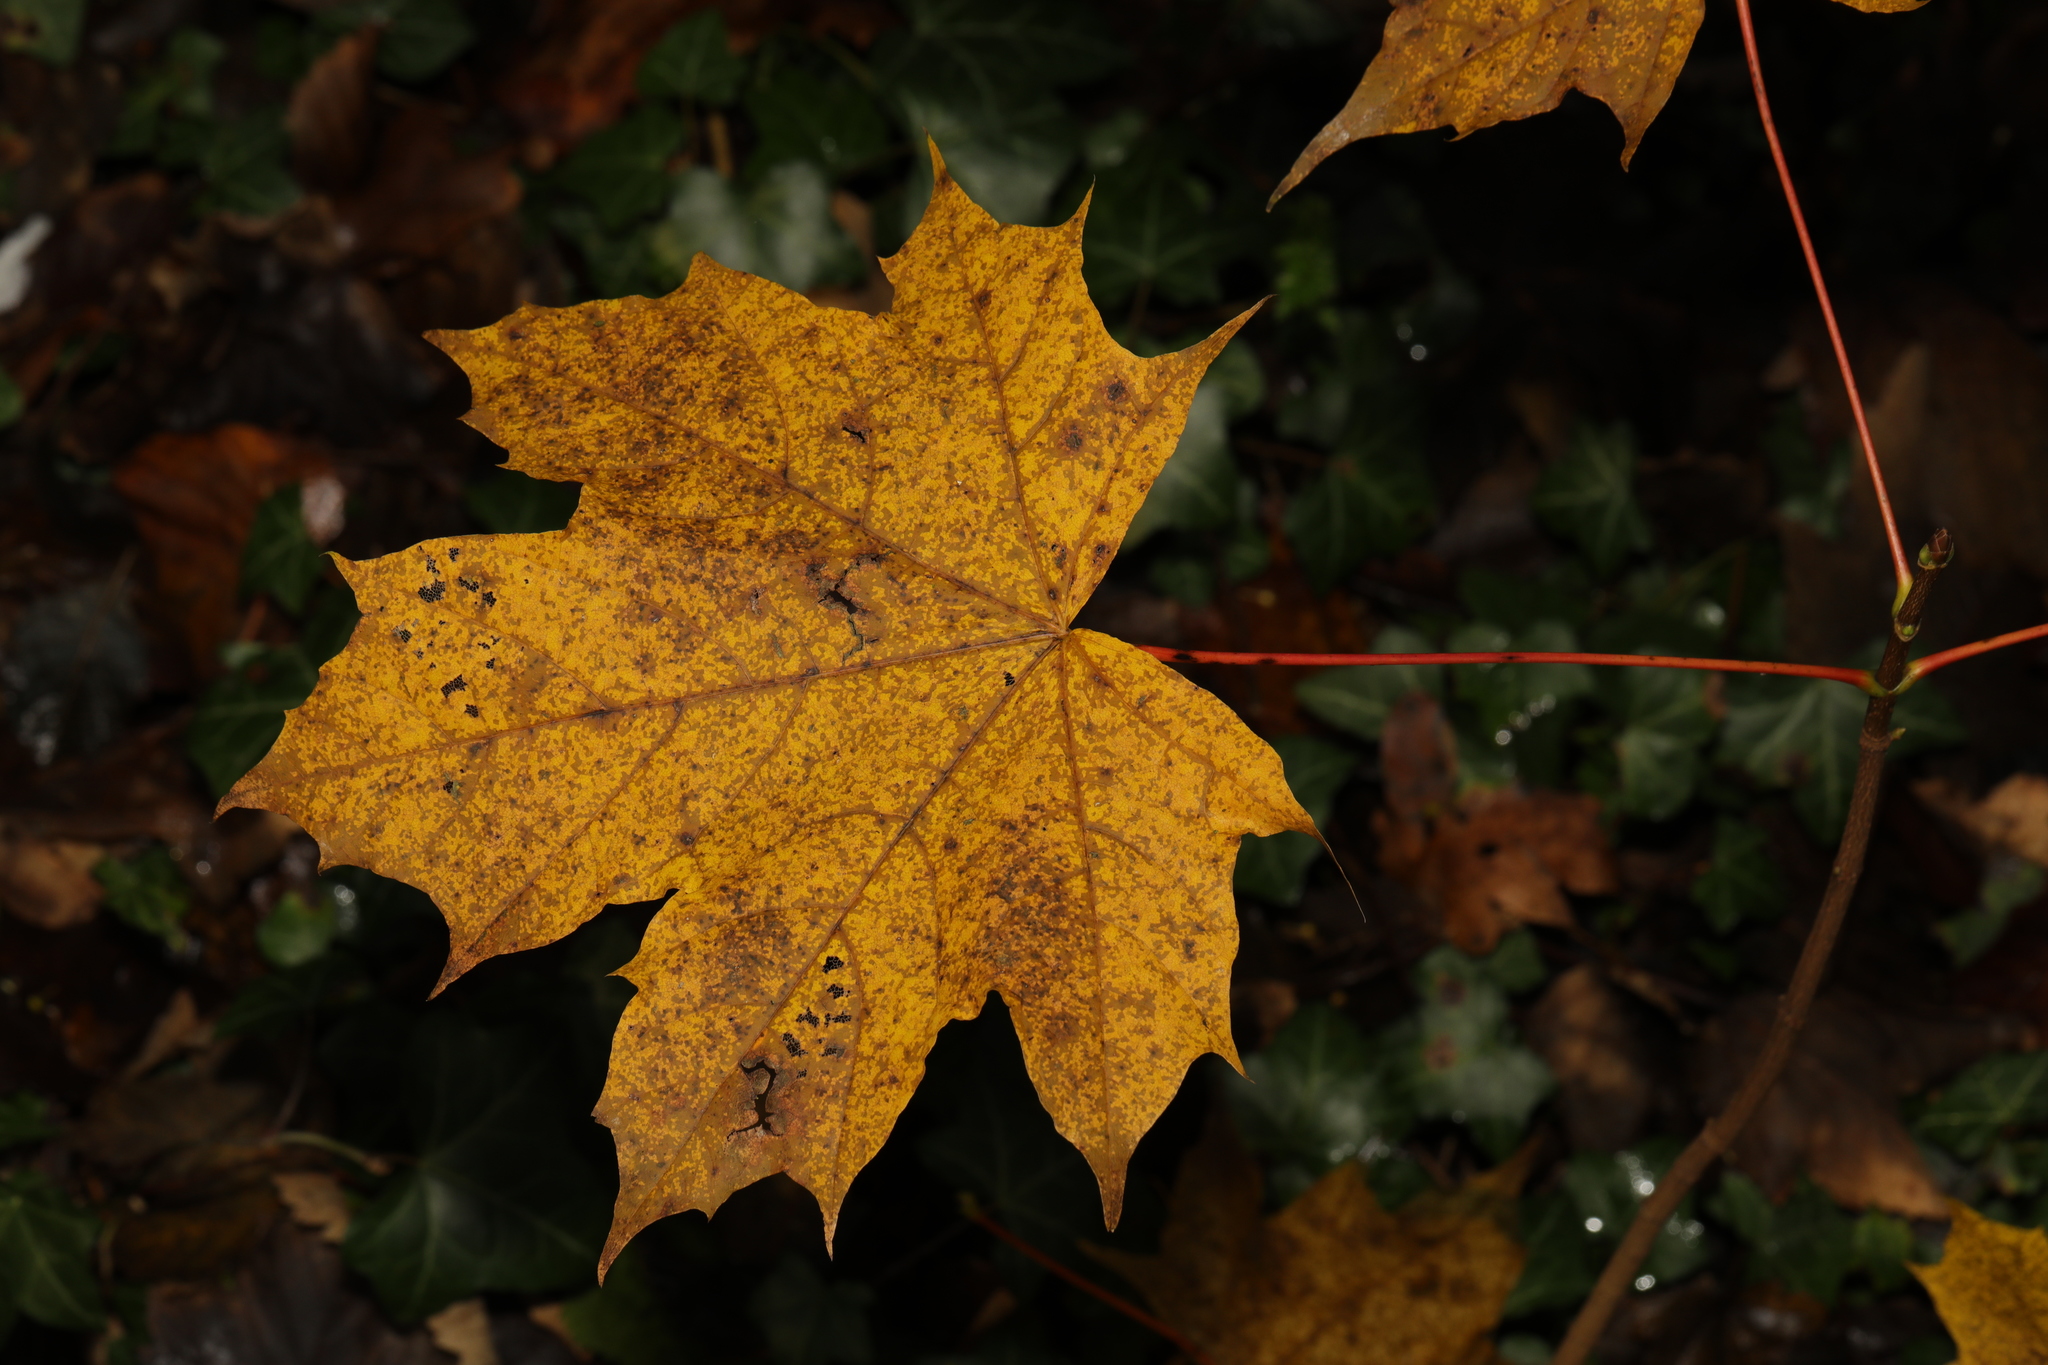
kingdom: Plantae
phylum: Tracheophyta
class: Magnoliopsida
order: Sapindales
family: Sapindaceae
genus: Acer
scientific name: Acer platanoides
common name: Norway maple
